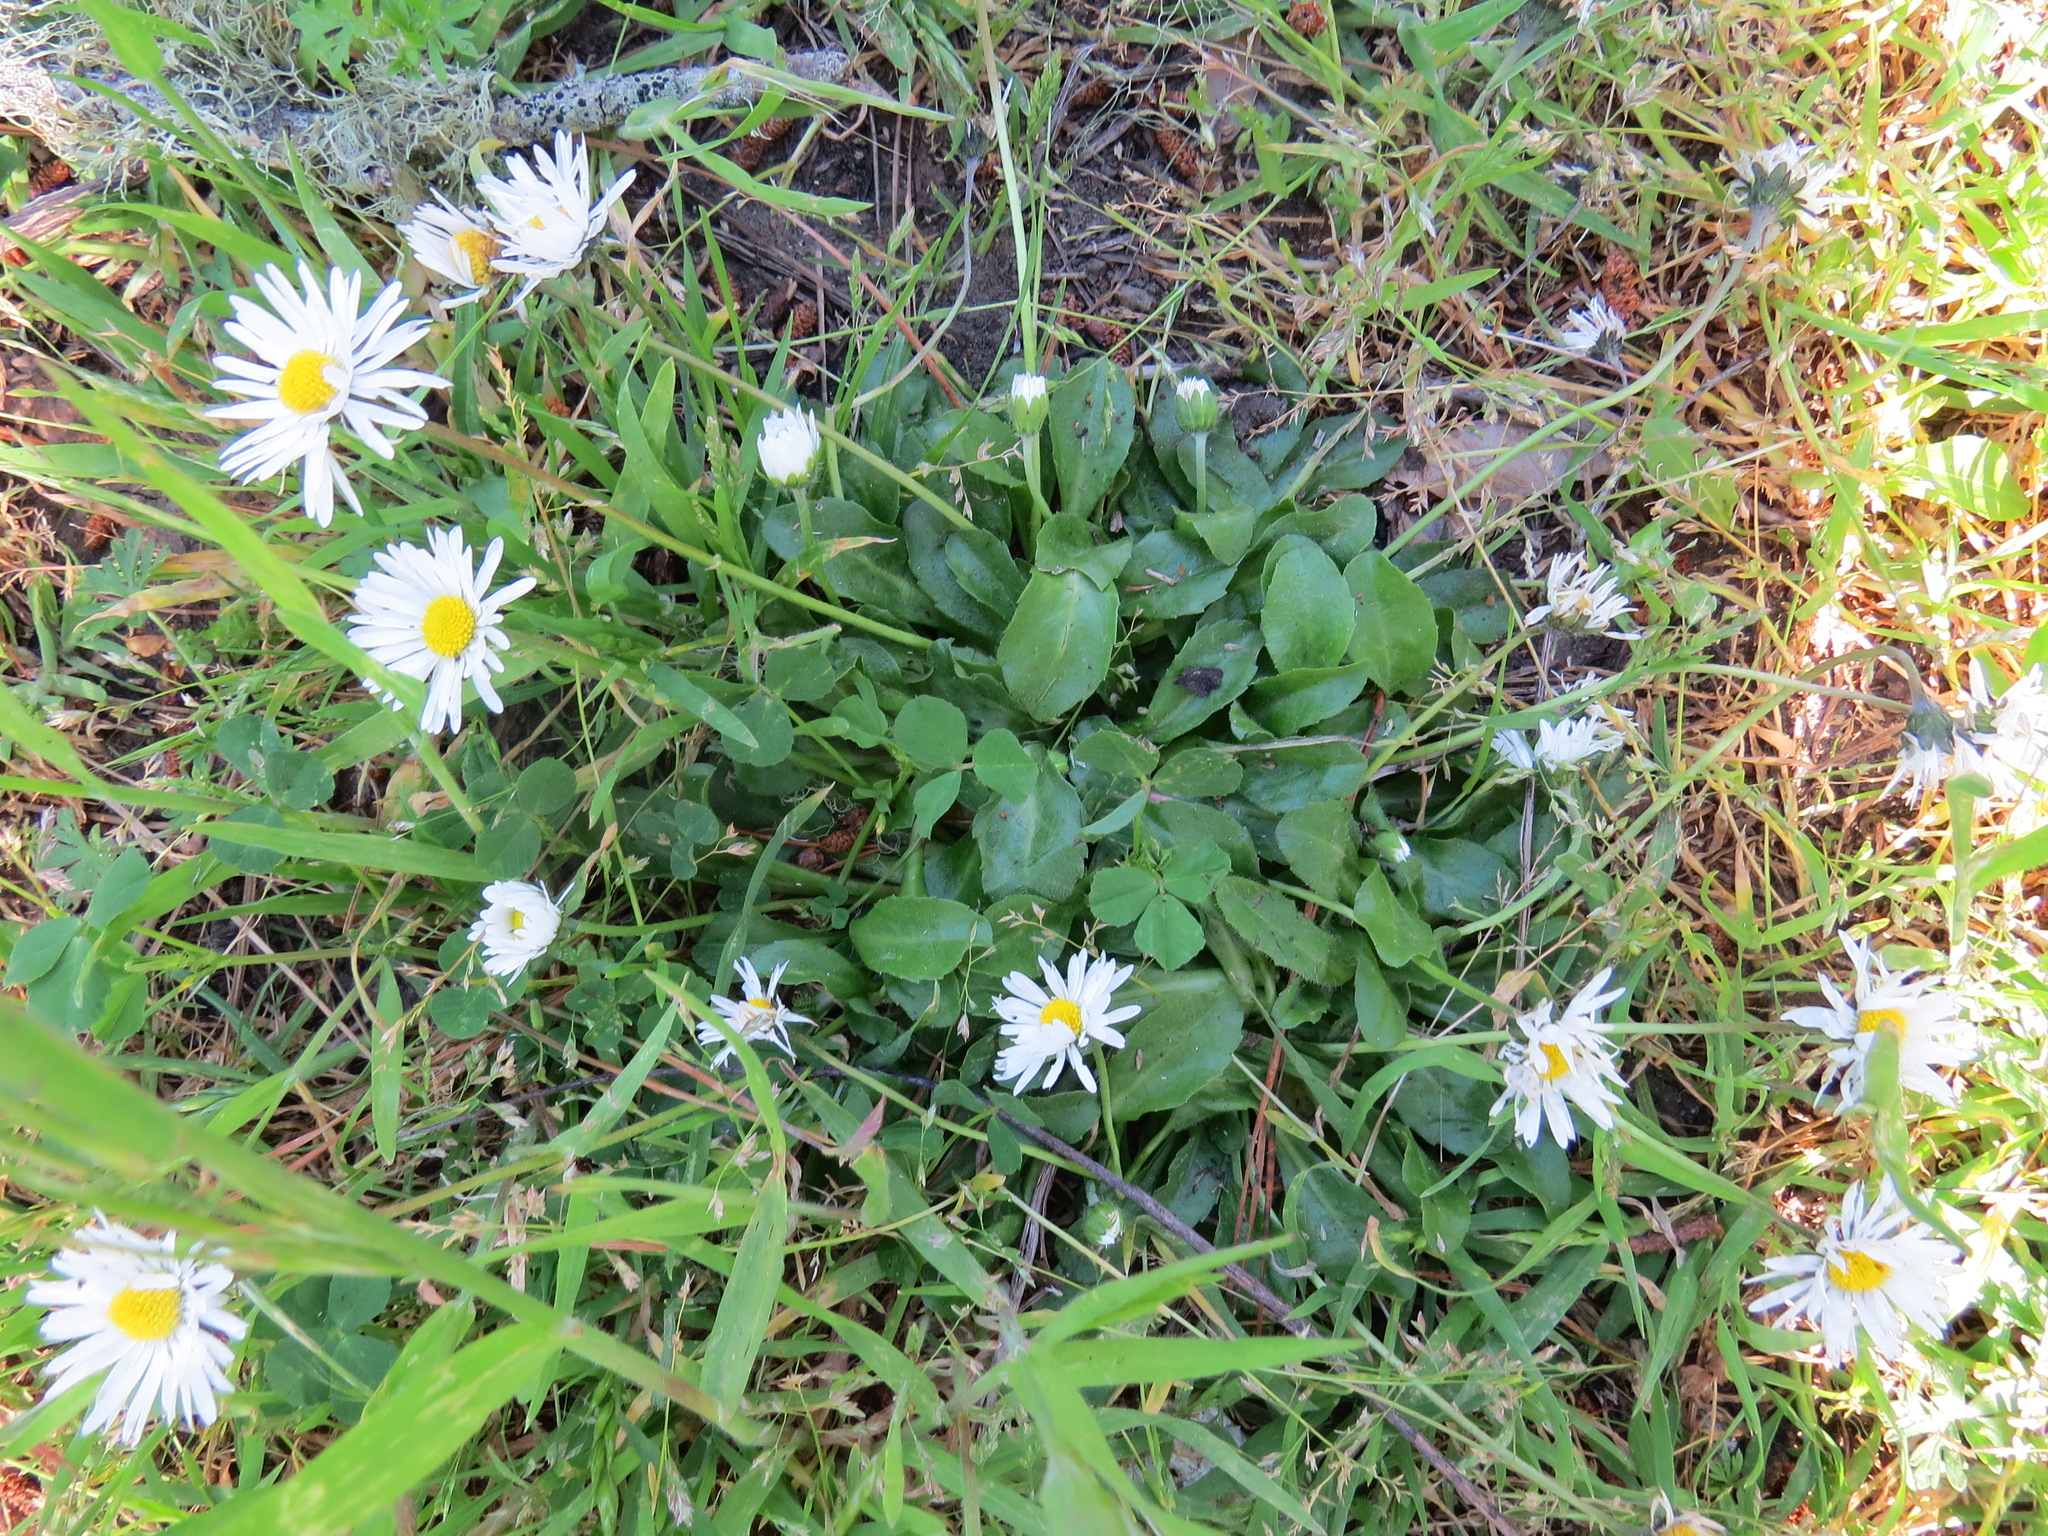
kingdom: Plantae
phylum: Tracheophyta
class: Magnoliopsida
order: Asterales
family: Asteraceae
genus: Bellis
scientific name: Bellis perennis
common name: Lawndaisy
